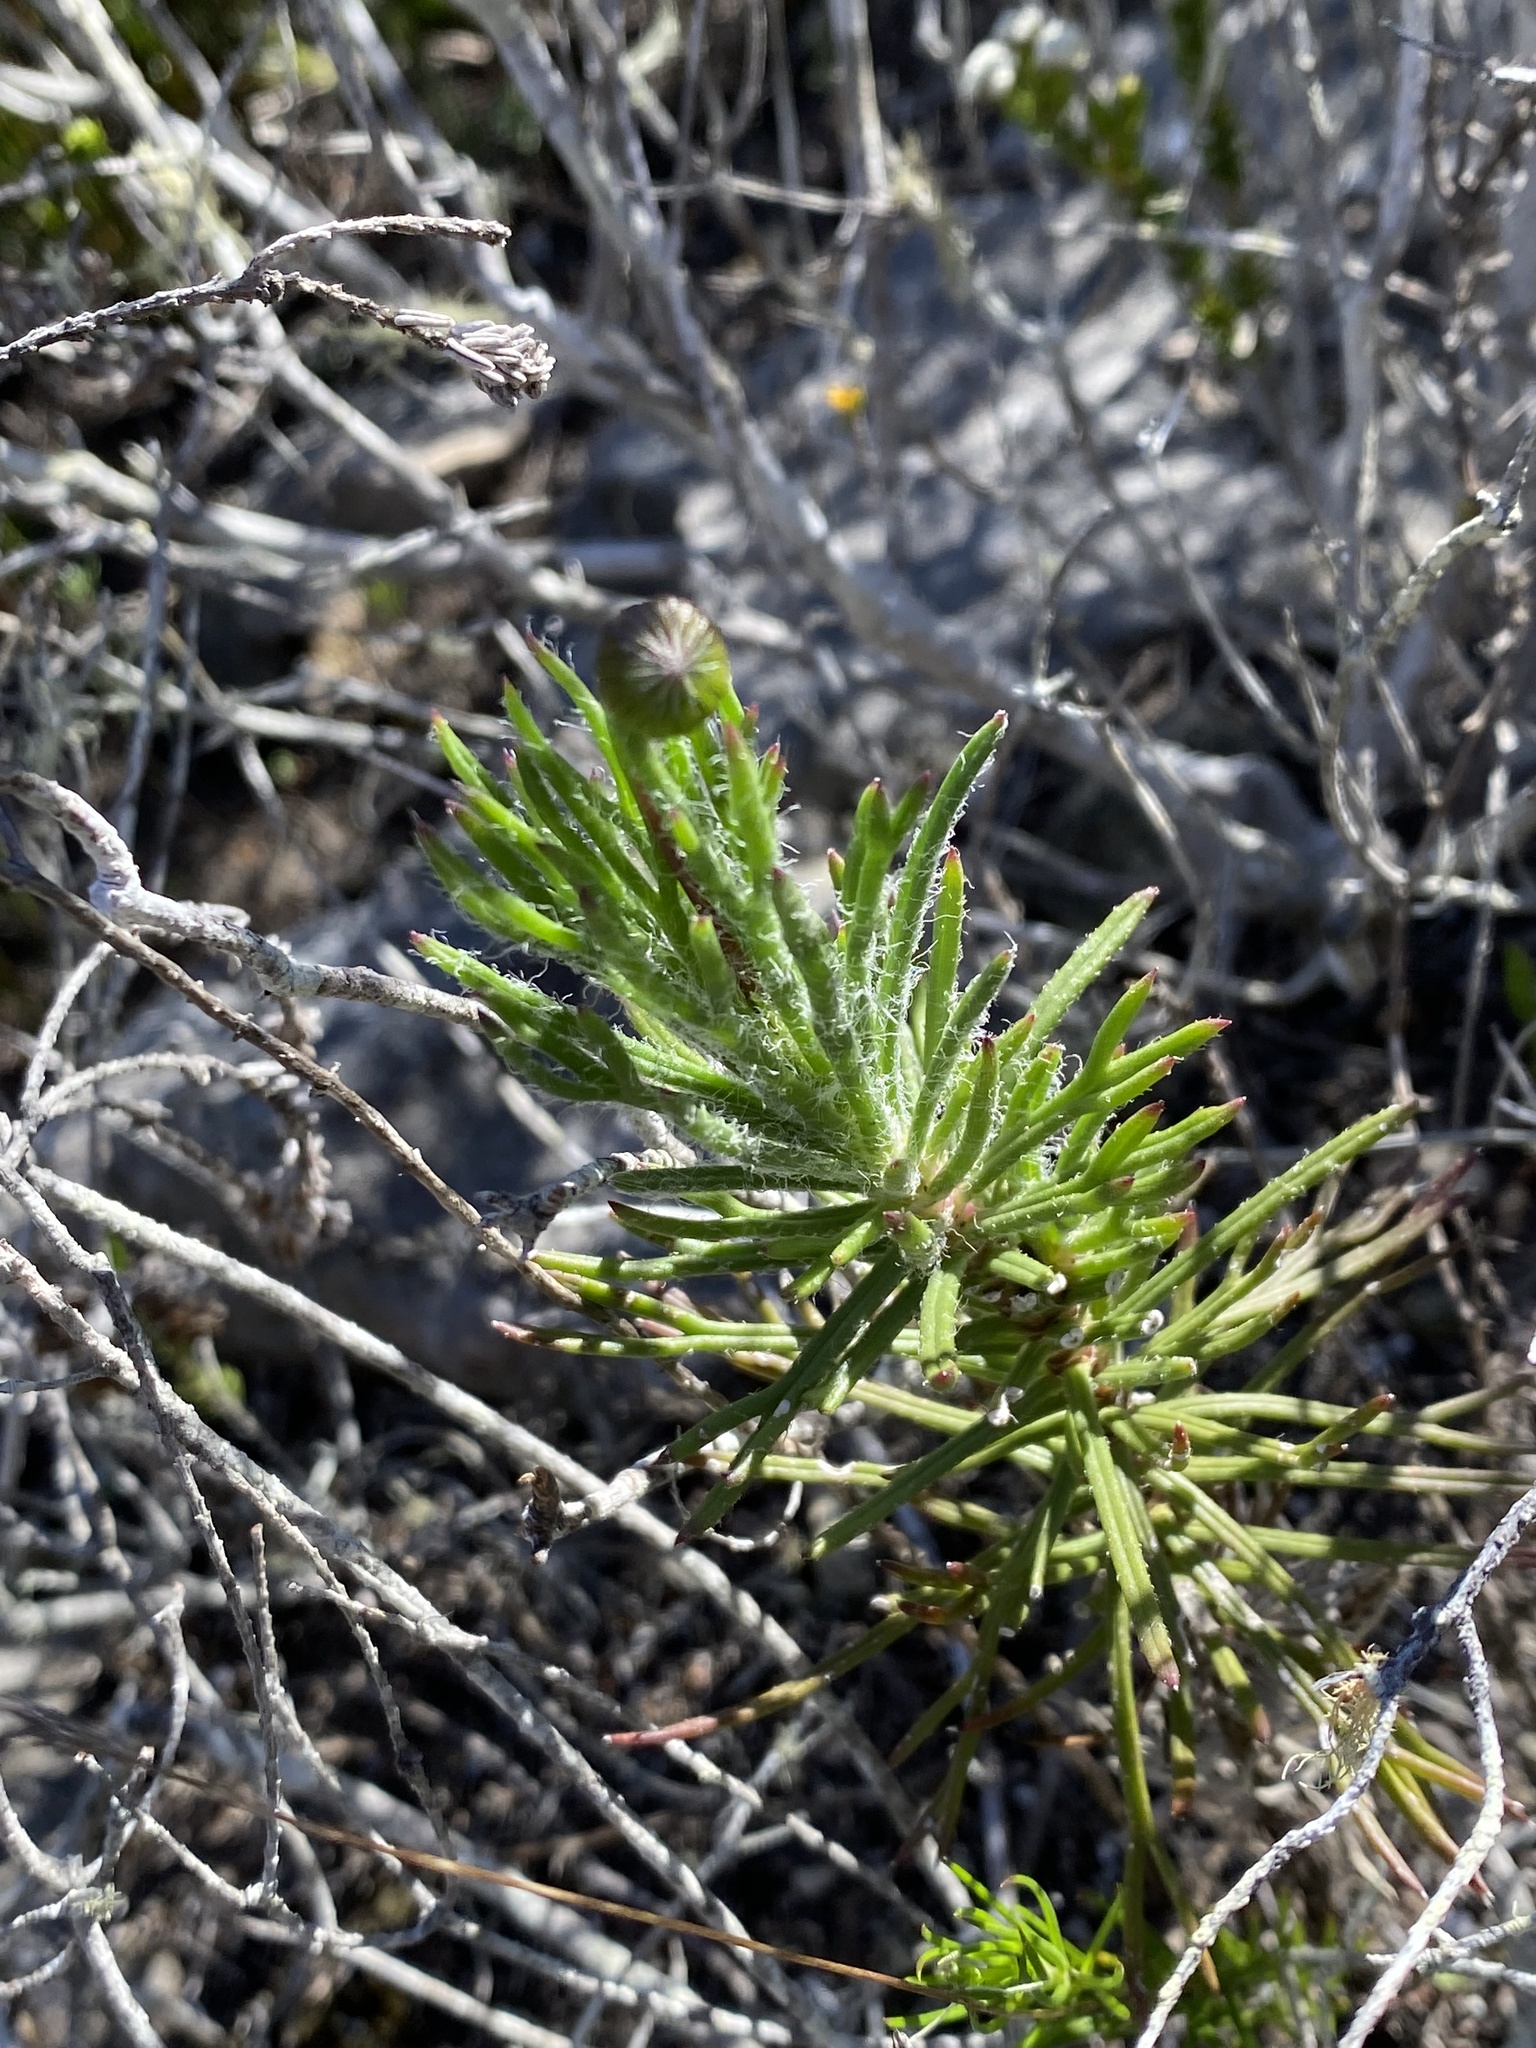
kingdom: Plantae
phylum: Tracheophyta
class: Magnoliopsida
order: Asterales
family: Asteraceae
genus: Euryops
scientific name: Euryops hebecarpus
